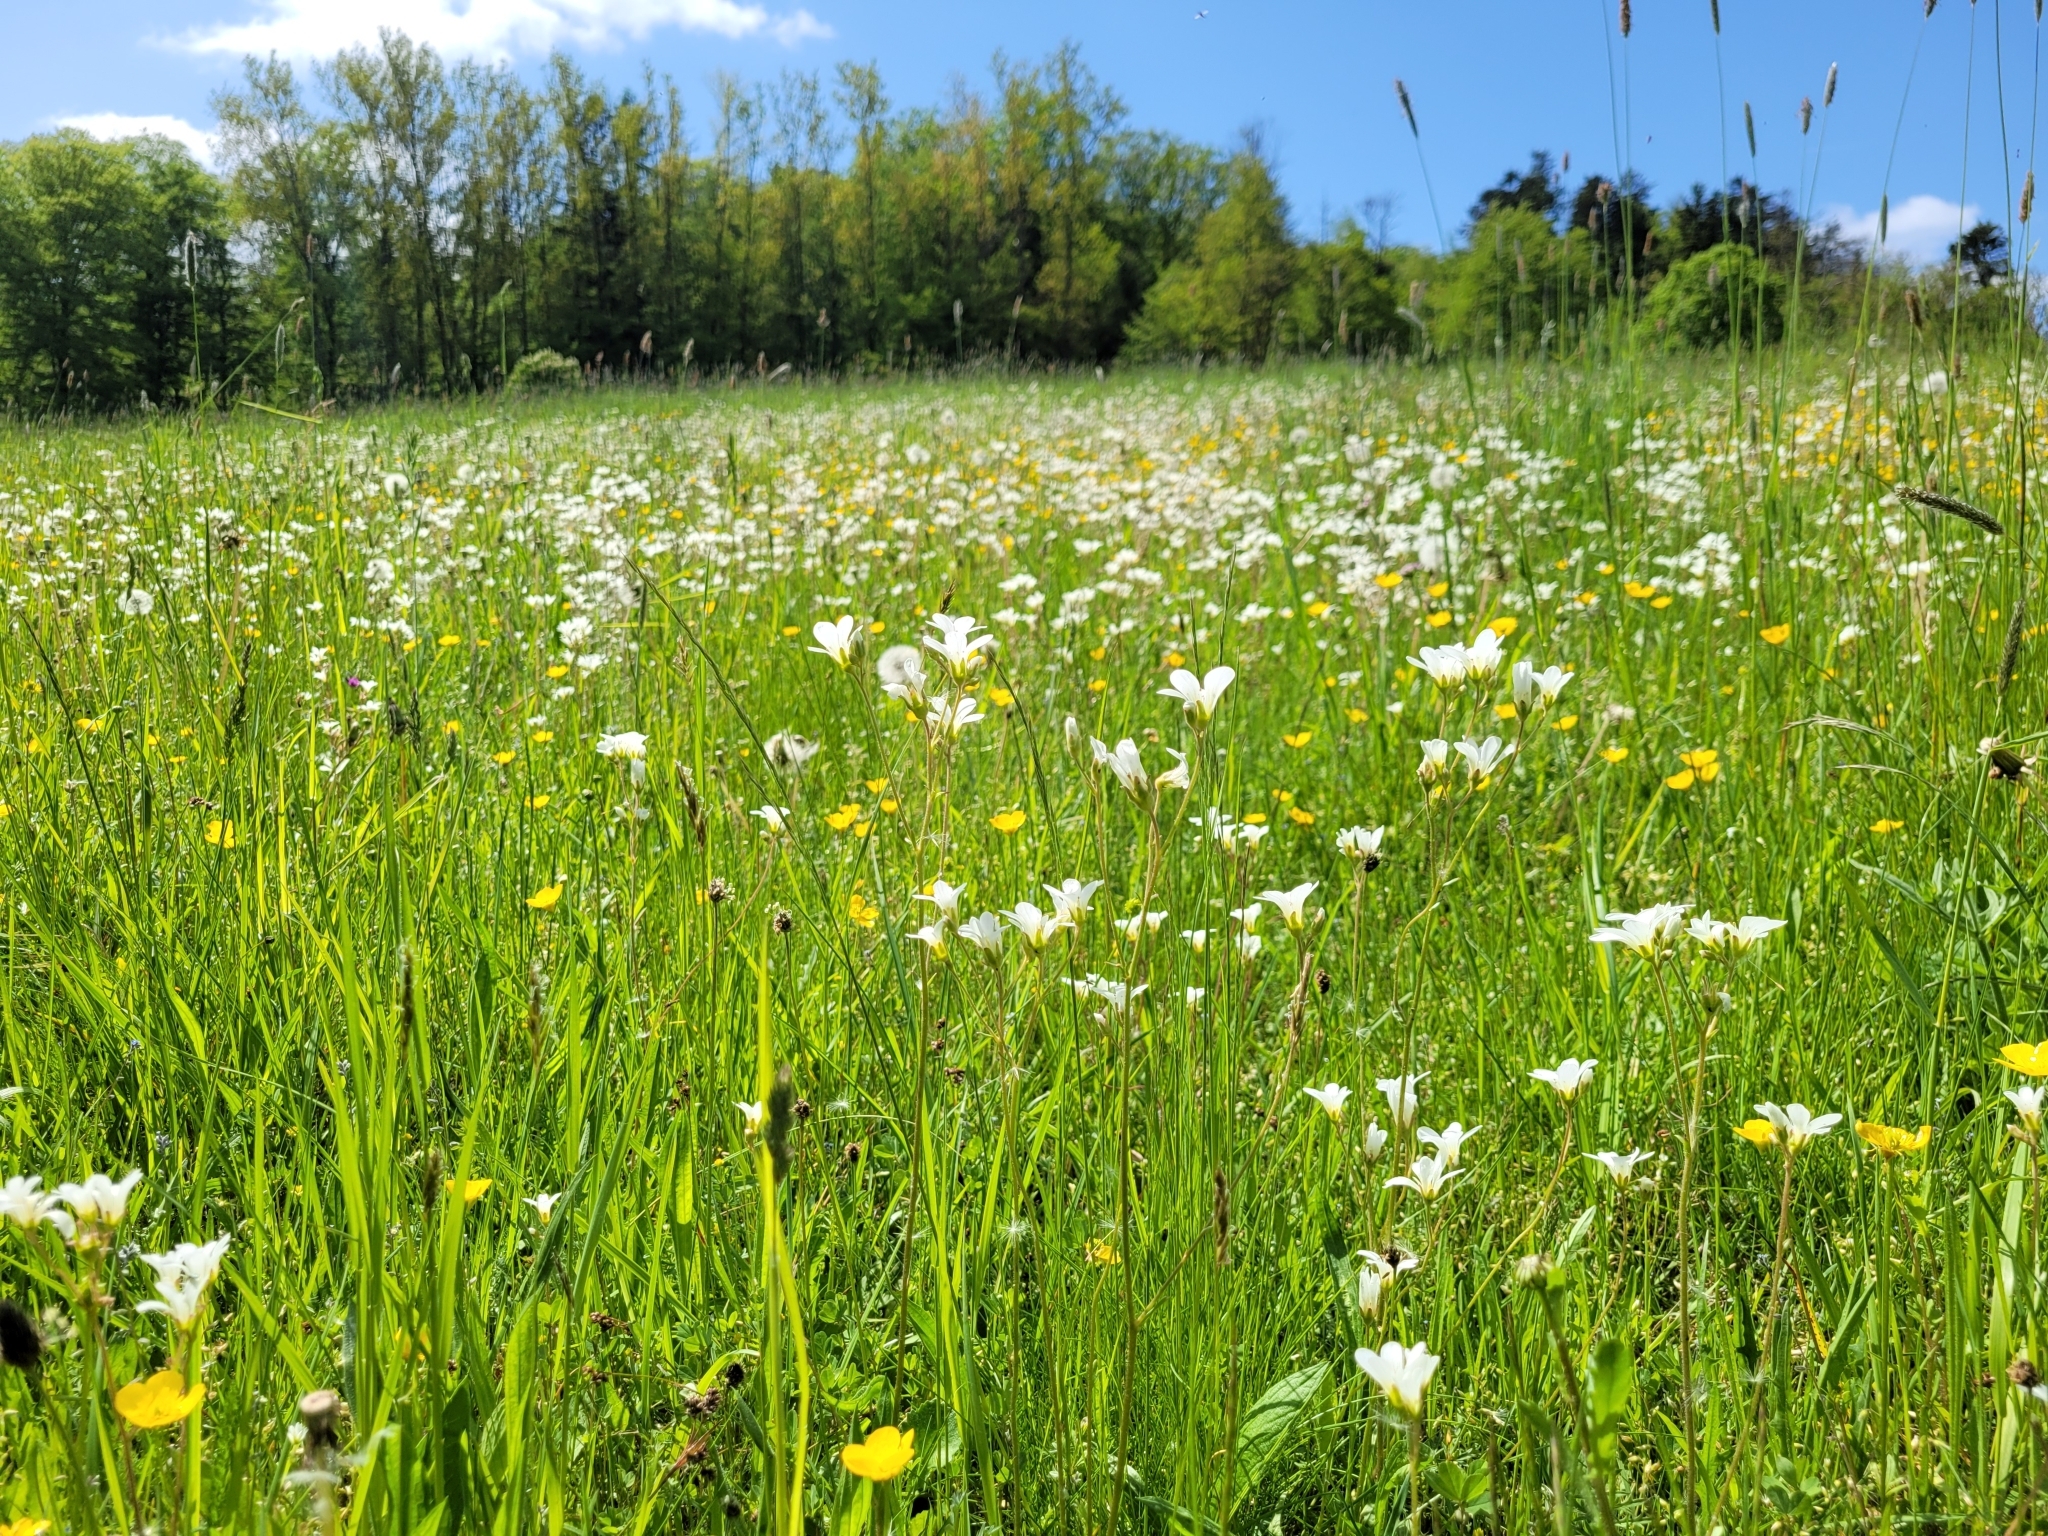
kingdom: Plantae
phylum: Tracheophyta
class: Magnoliopsida
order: Saxifragales
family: Saxifragaceae
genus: Saxifraga
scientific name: Saxifraga granulata
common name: Meadow saxifrage
